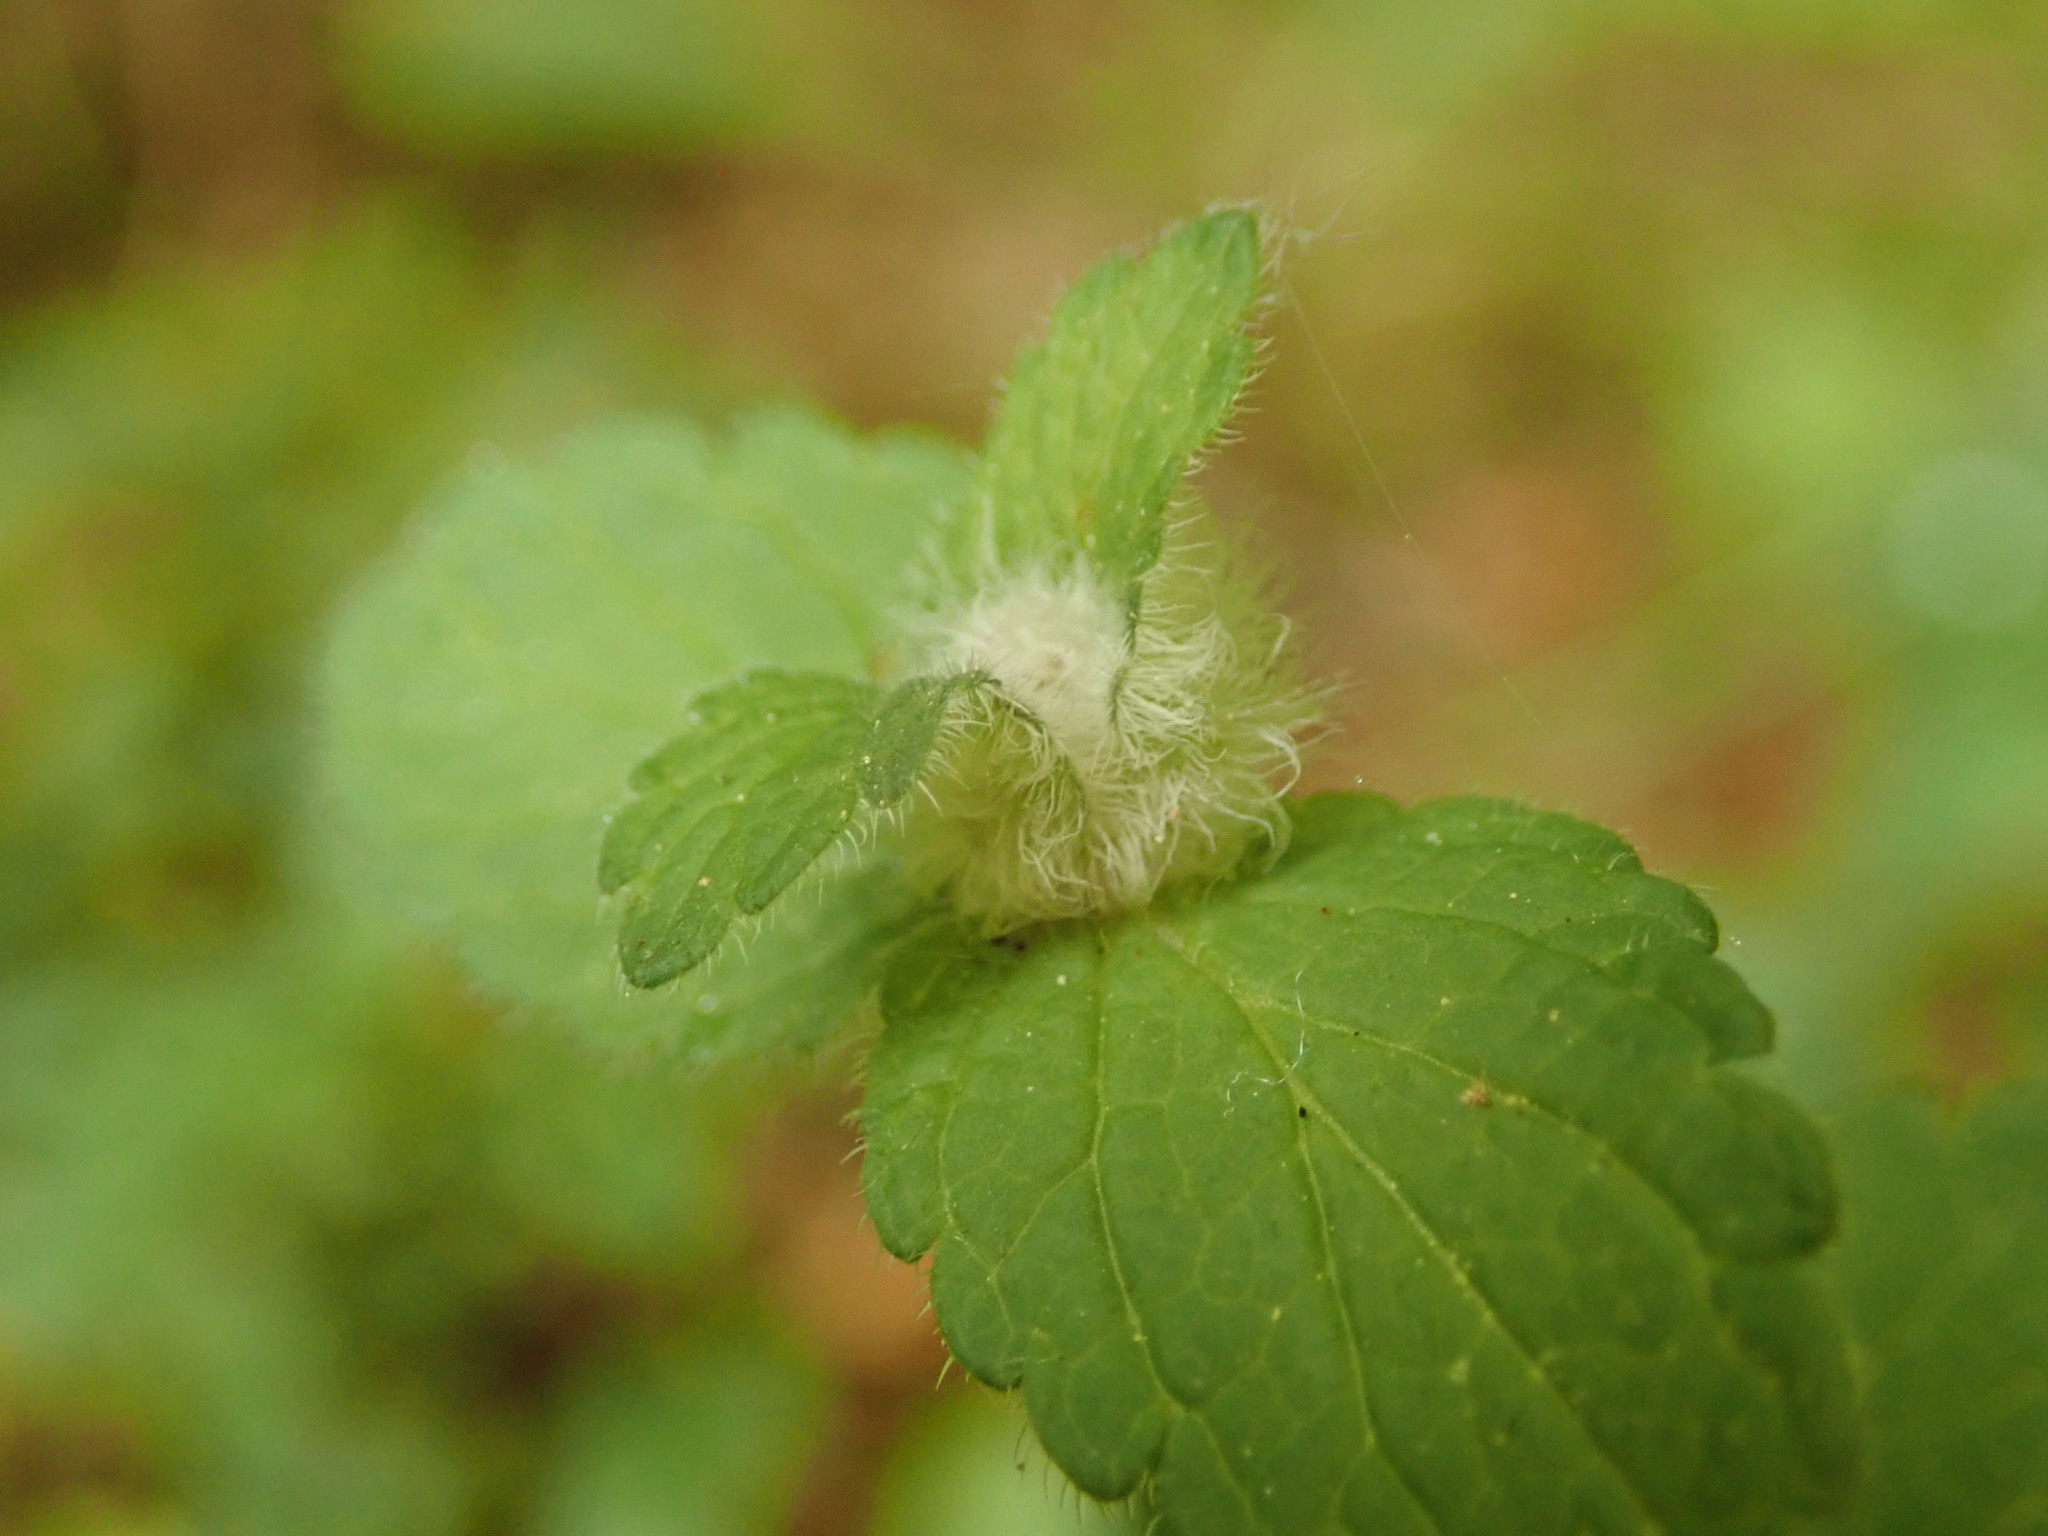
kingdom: Animalia
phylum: Arthropoda
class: Insecta
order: Diptera
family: Cecidomyiidae
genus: Jaapiella
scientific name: Jaapiella veronicae
